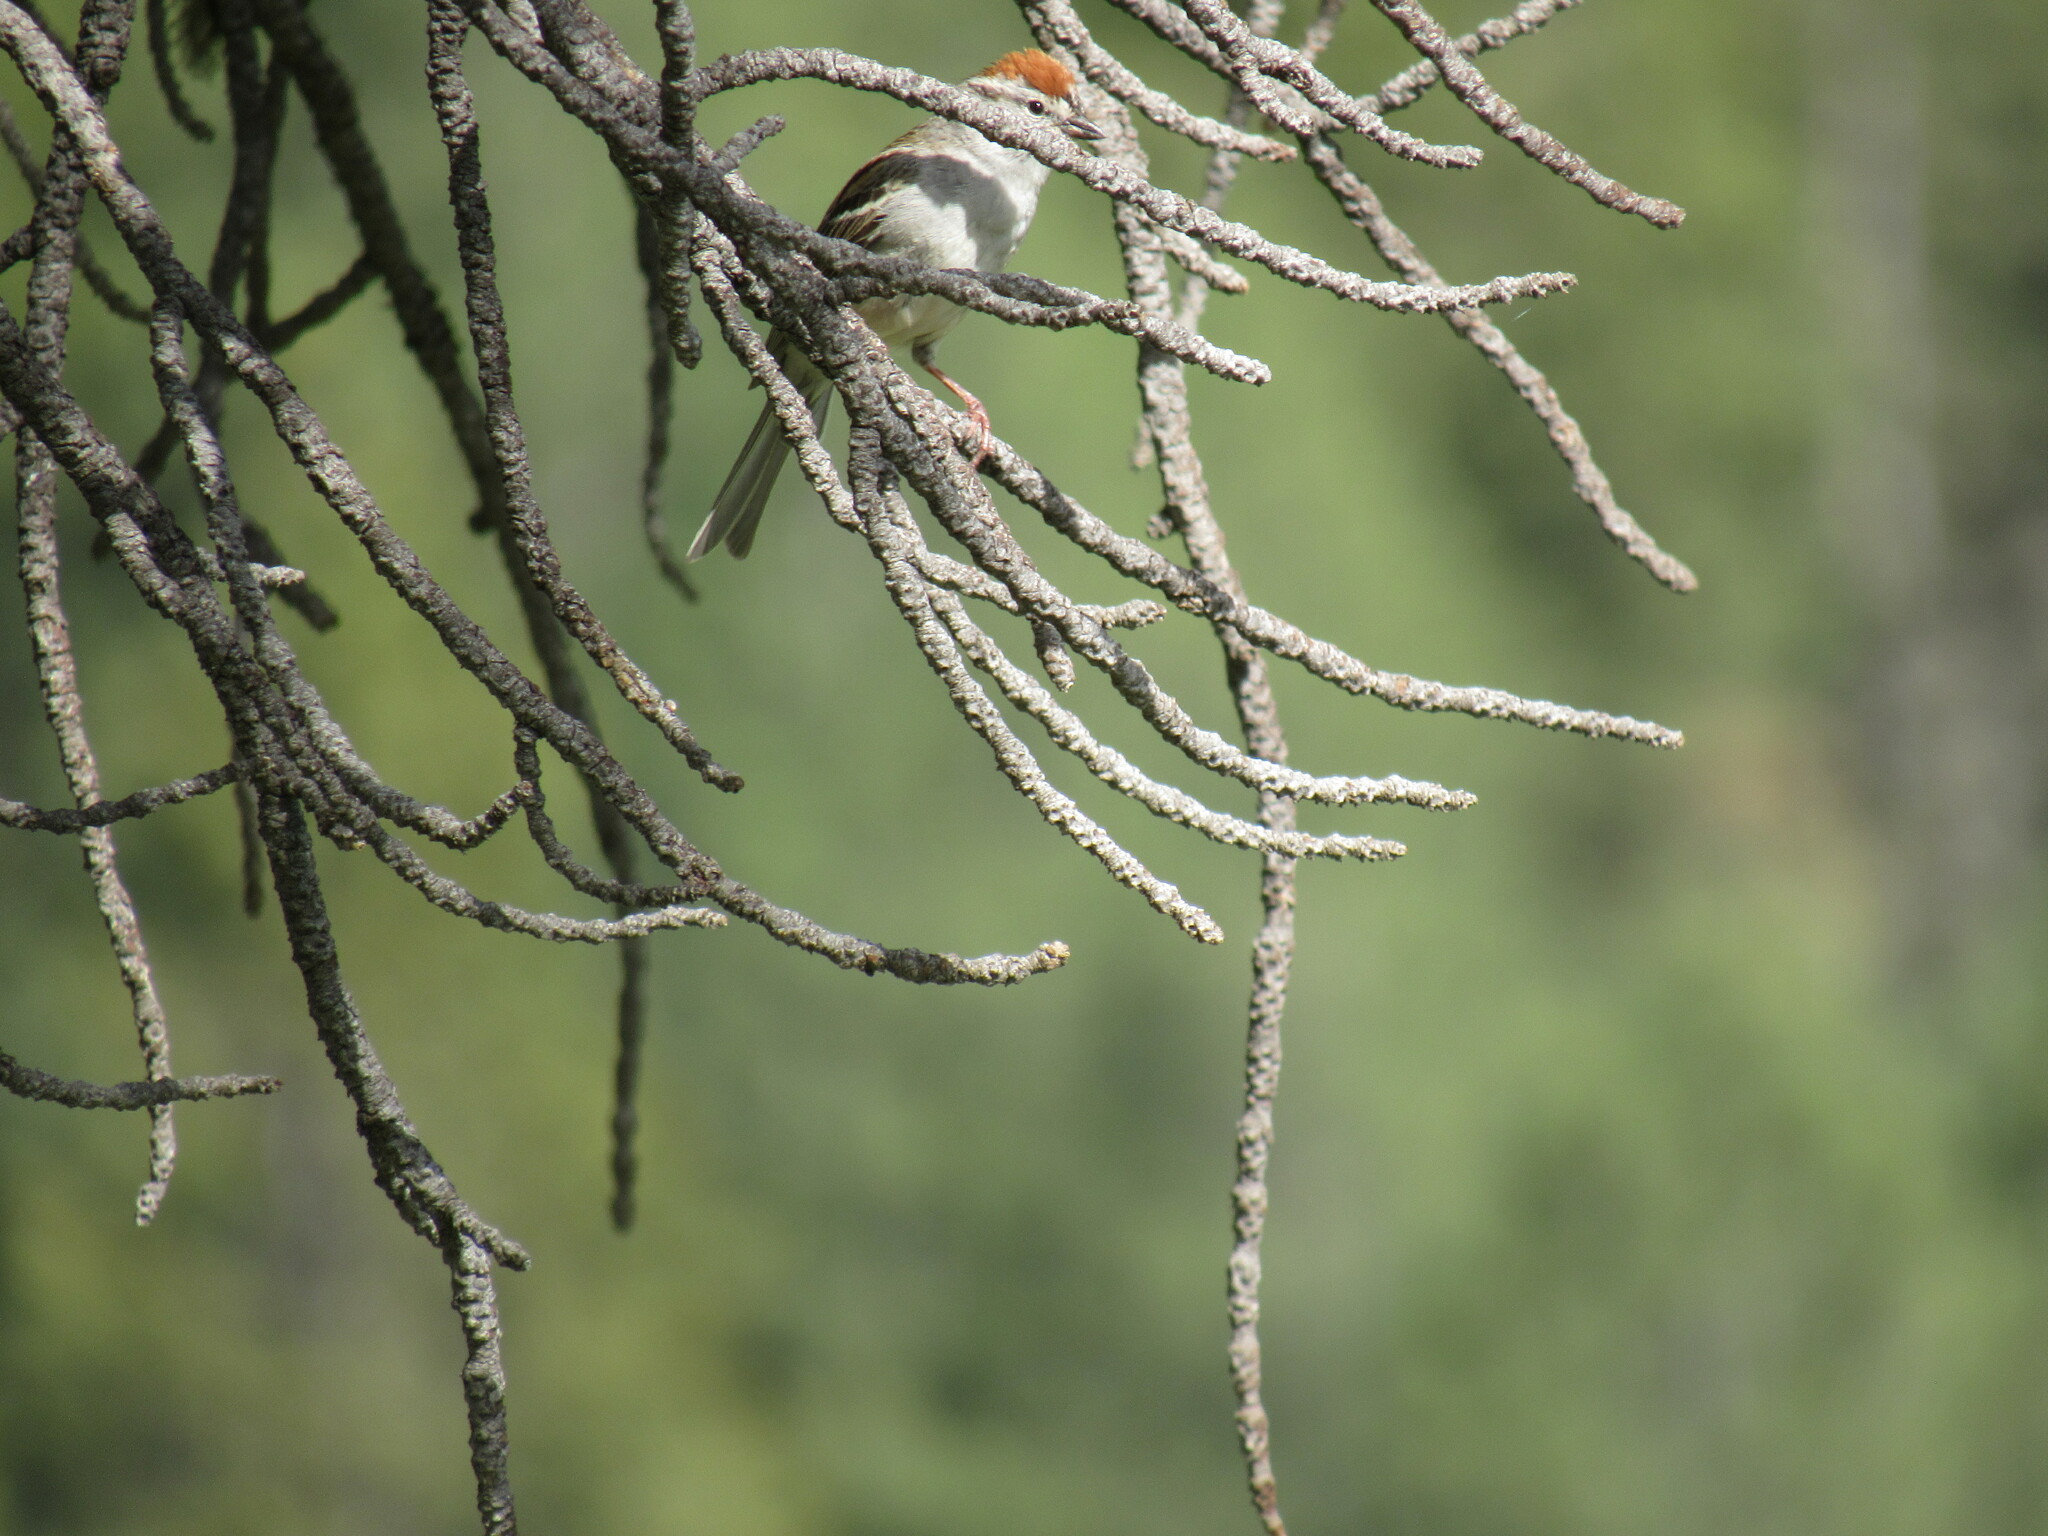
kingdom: Animalia
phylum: Chordata
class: Aves
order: Passeriformes
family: Passerellidae
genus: Spizella
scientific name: Spizella passerina
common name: Chipping sparrow
